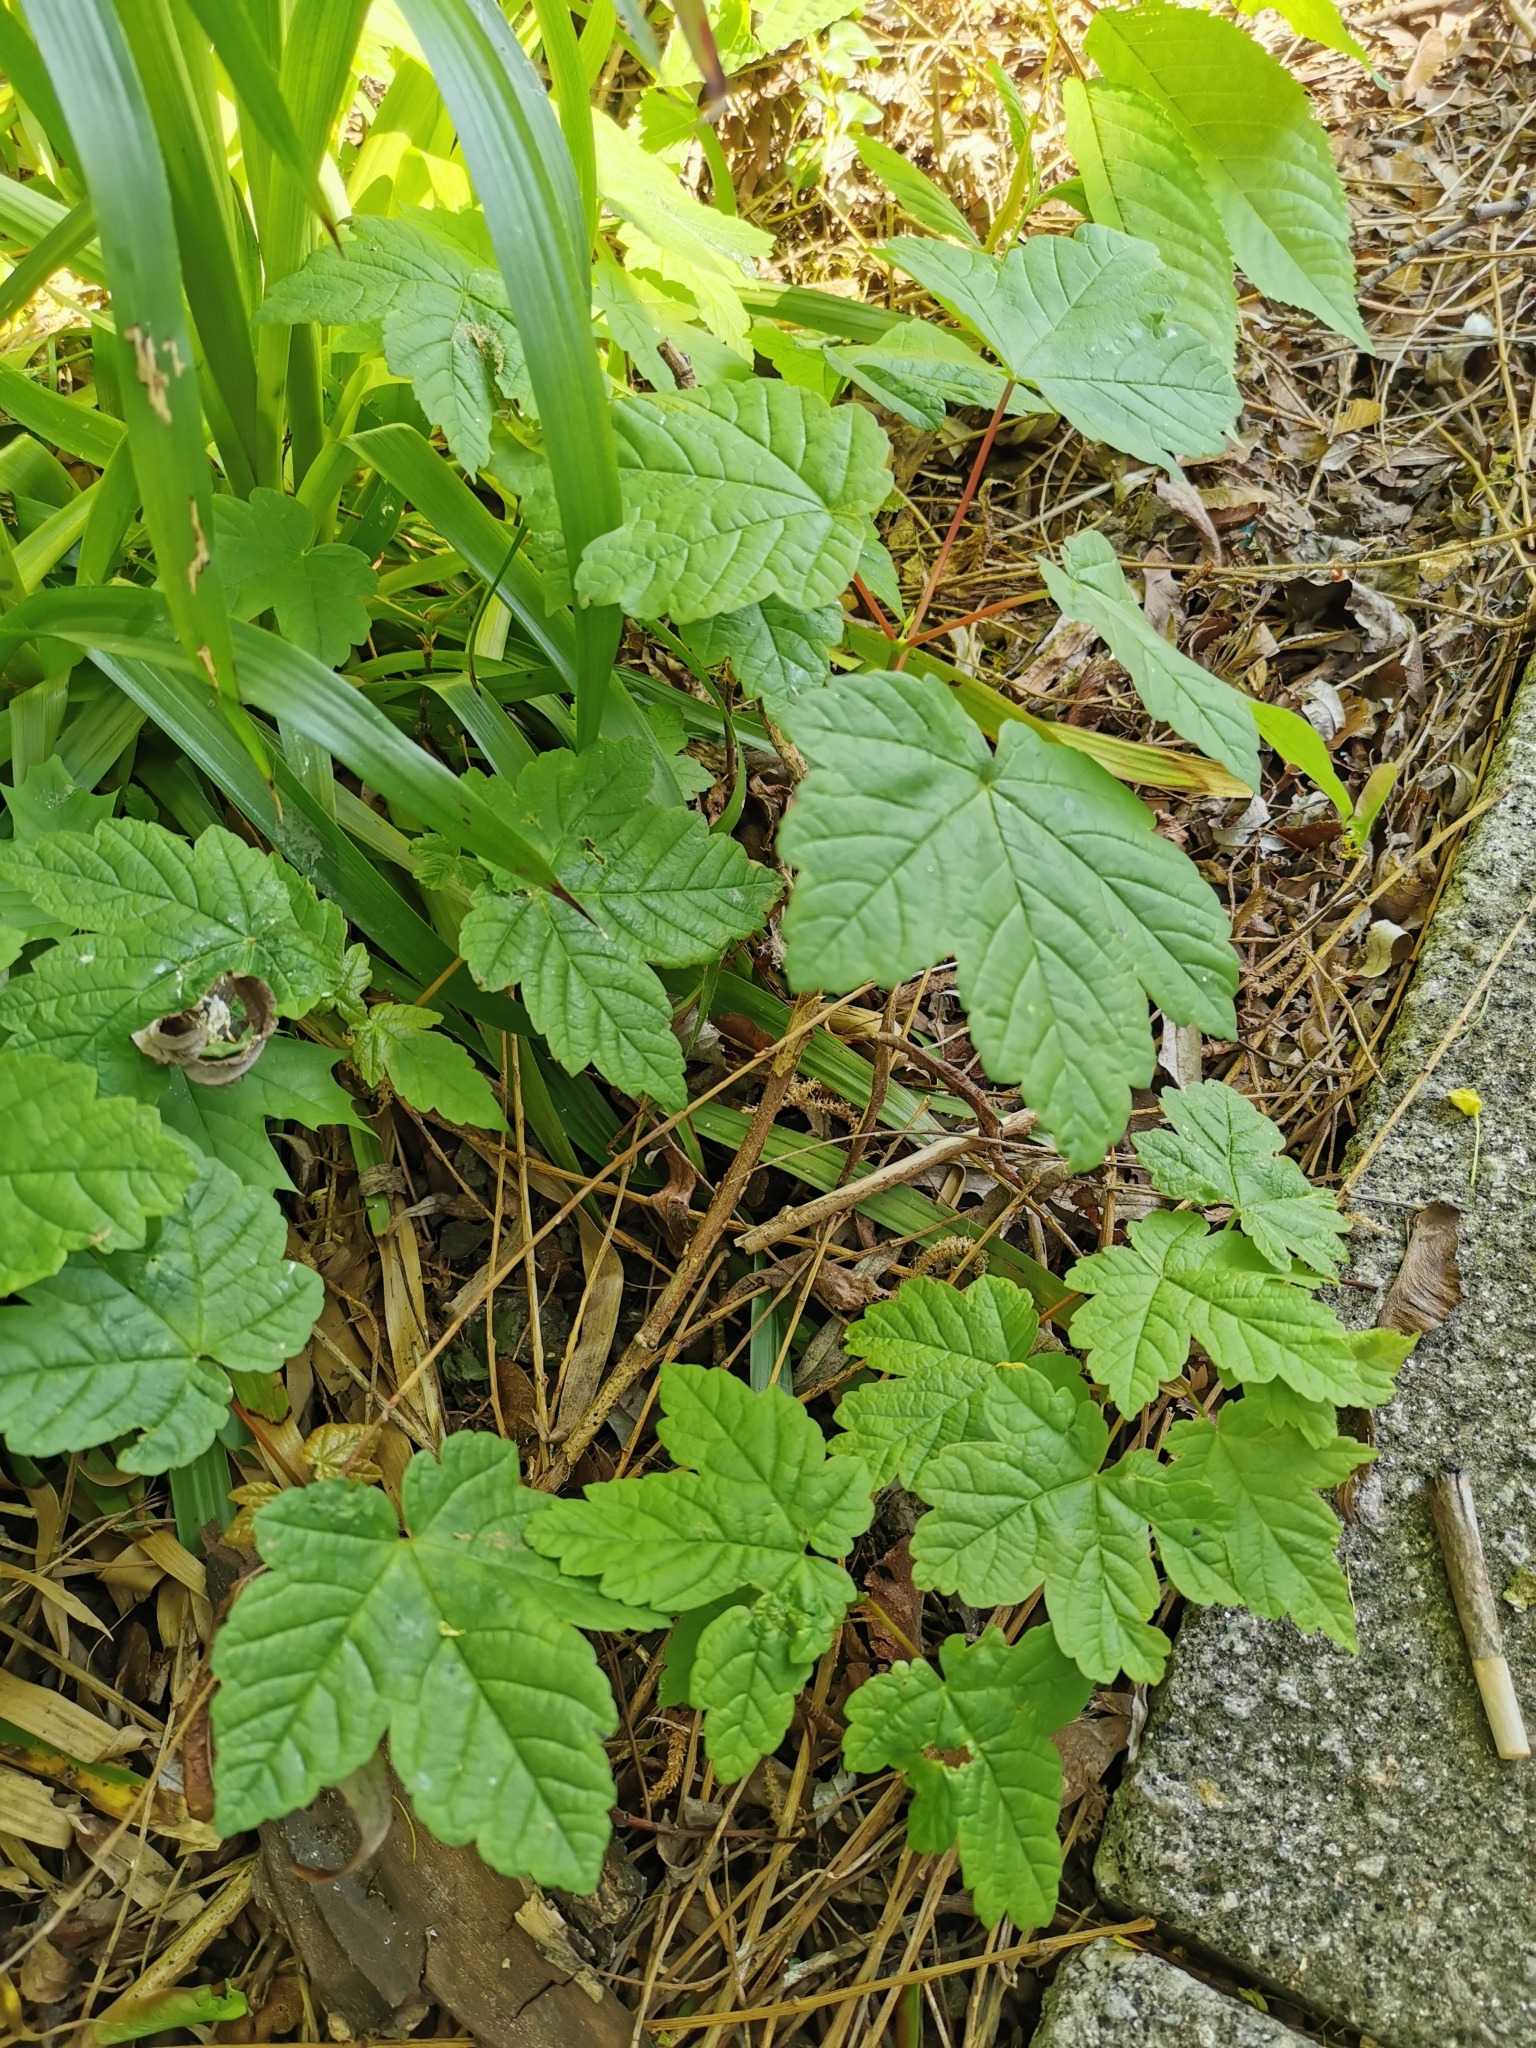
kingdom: Plantae
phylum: Tracheophyta
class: Magnoliopsida
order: Sapindales
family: Sapindaceae
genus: Acer
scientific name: Acer pseudoplatanus
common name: Sycamore
